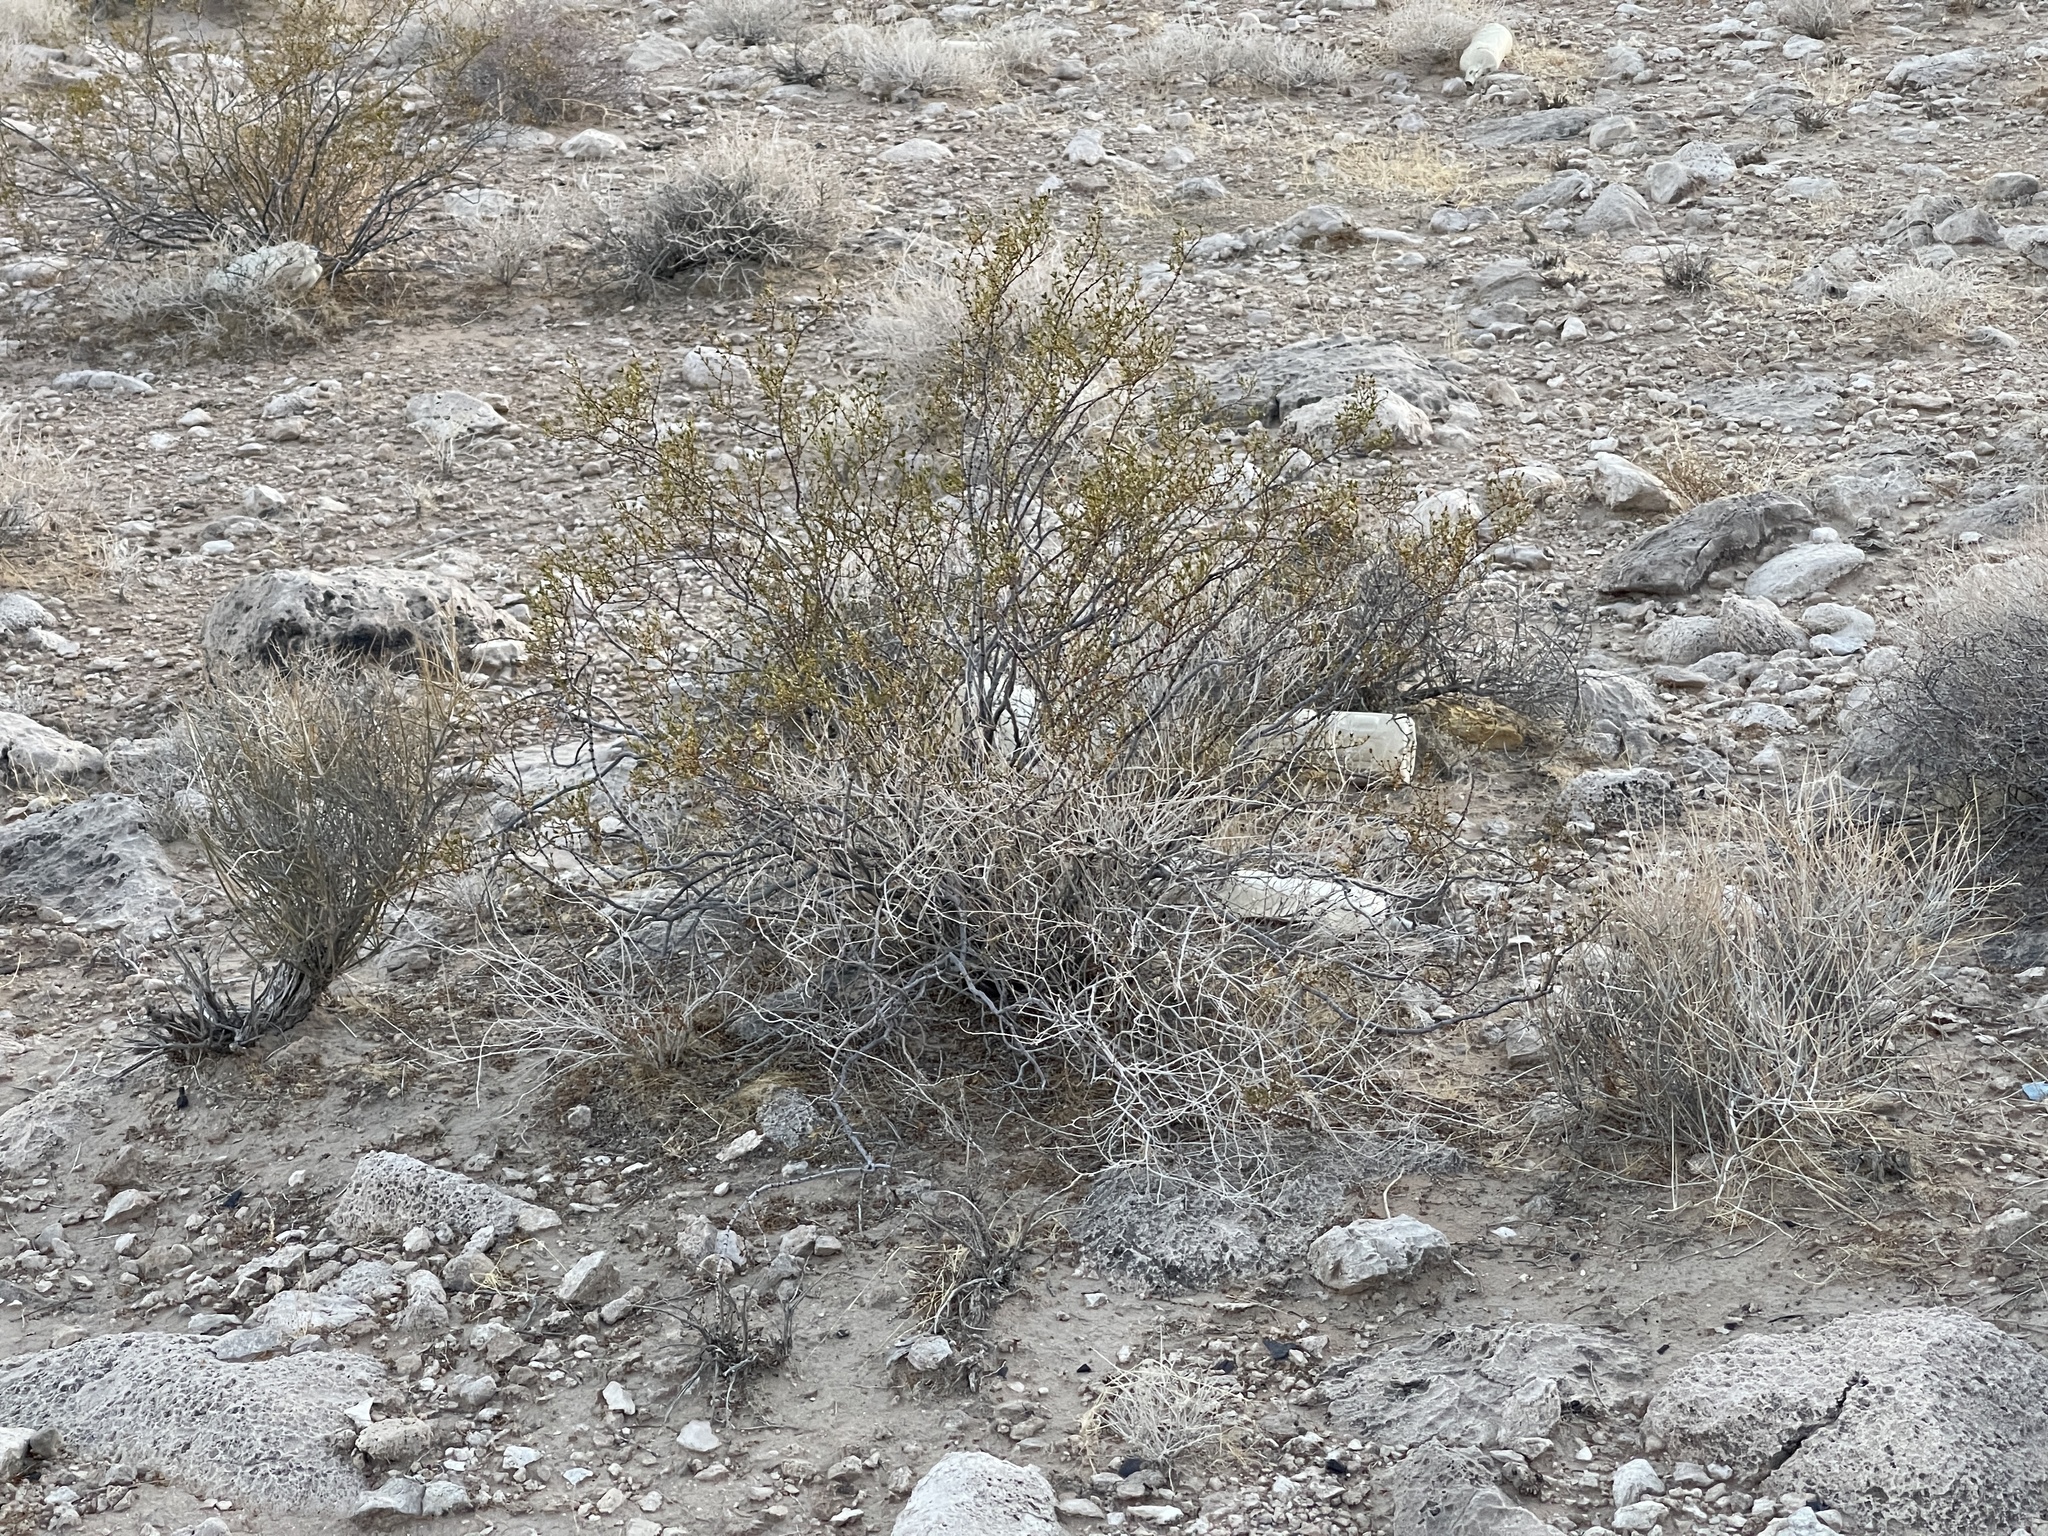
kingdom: Plantae
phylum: Tracheophyta
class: Magnoliopsida
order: Zygophyllales
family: Zygophyllaceae
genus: Larrea
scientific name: Larrea tridentata
